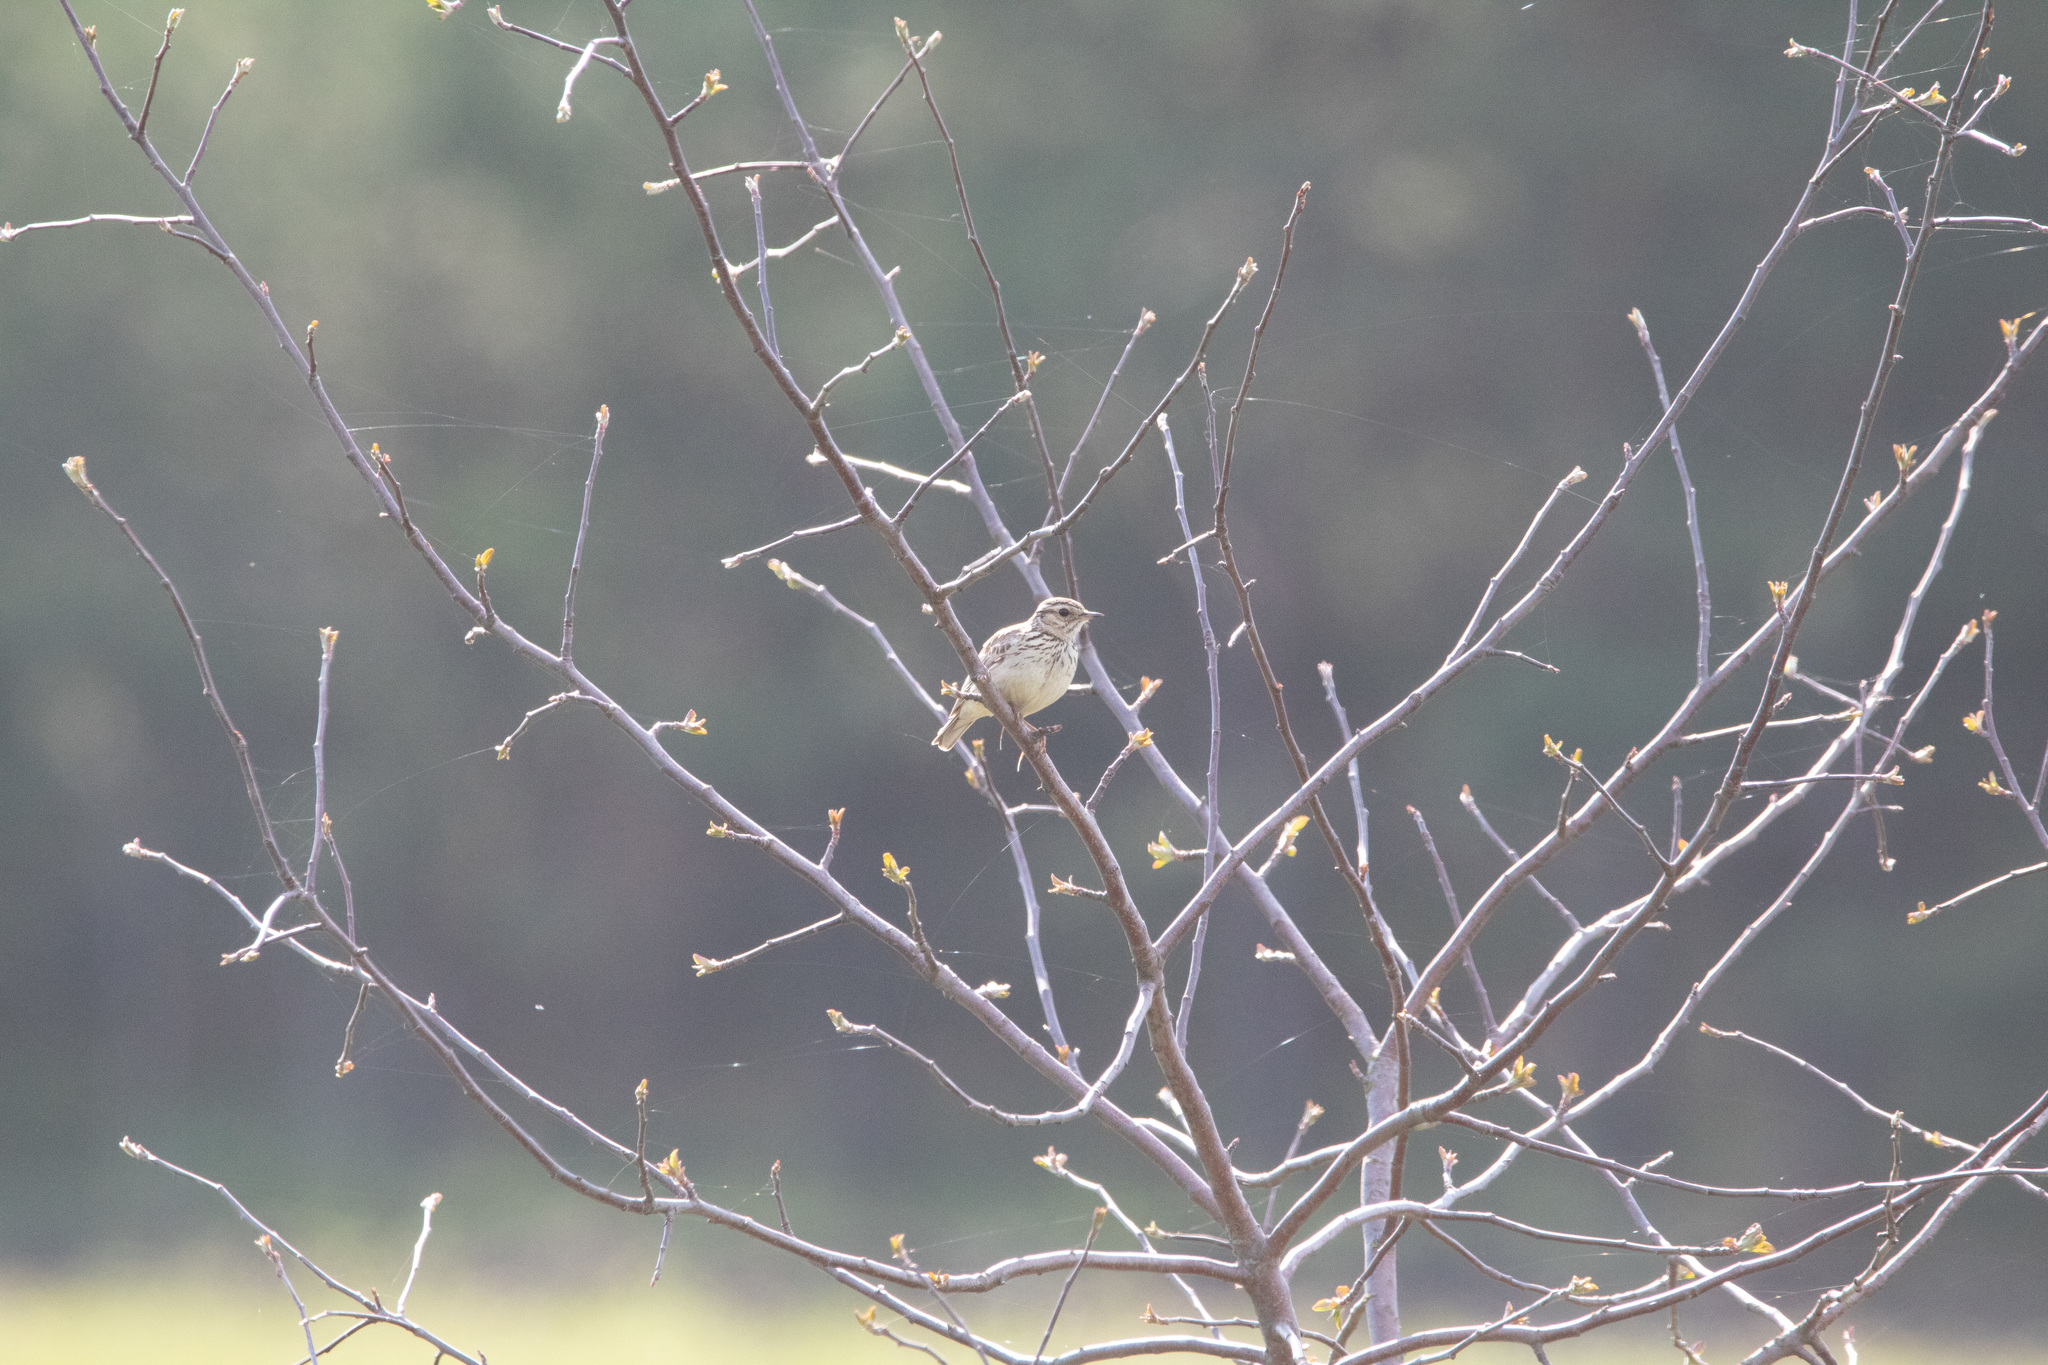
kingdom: Animalia
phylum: Chordata
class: Aves
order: Passeriformes
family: Alaudidae
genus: Lullula
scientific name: Lullula arborea
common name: Woodlark
